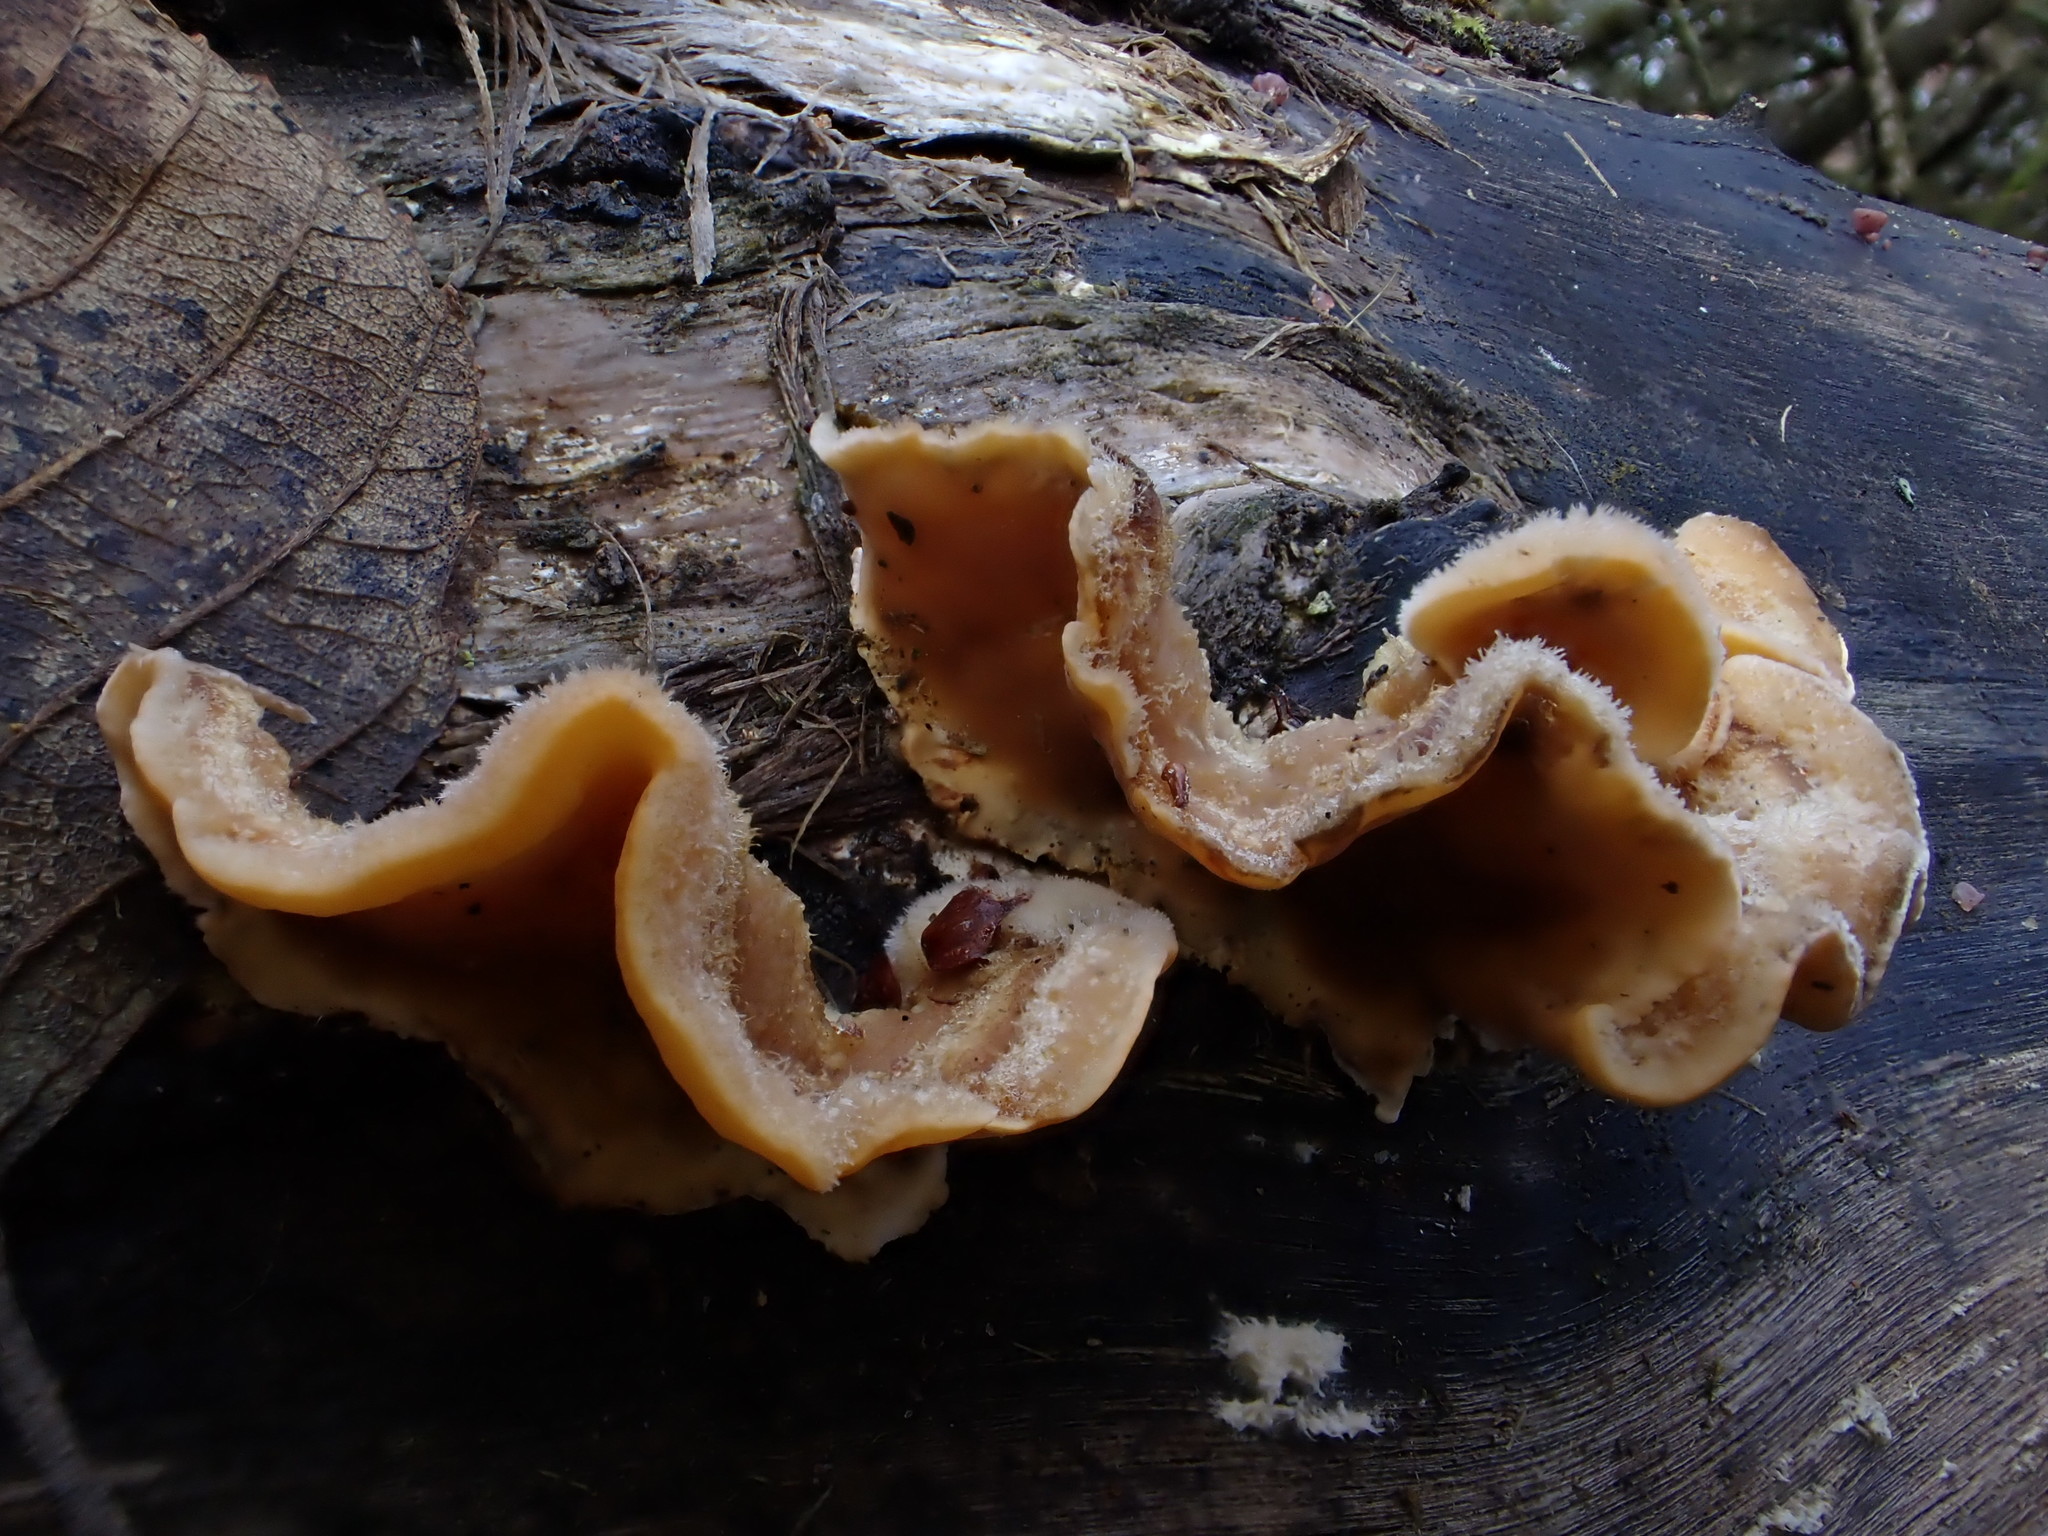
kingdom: Fungi
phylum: Basidiomycota
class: Agaricomycetes
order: Russulales
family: Stereaceae
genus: Stereum
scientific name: Stereum hirsutum
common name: Hairy curtain crust
